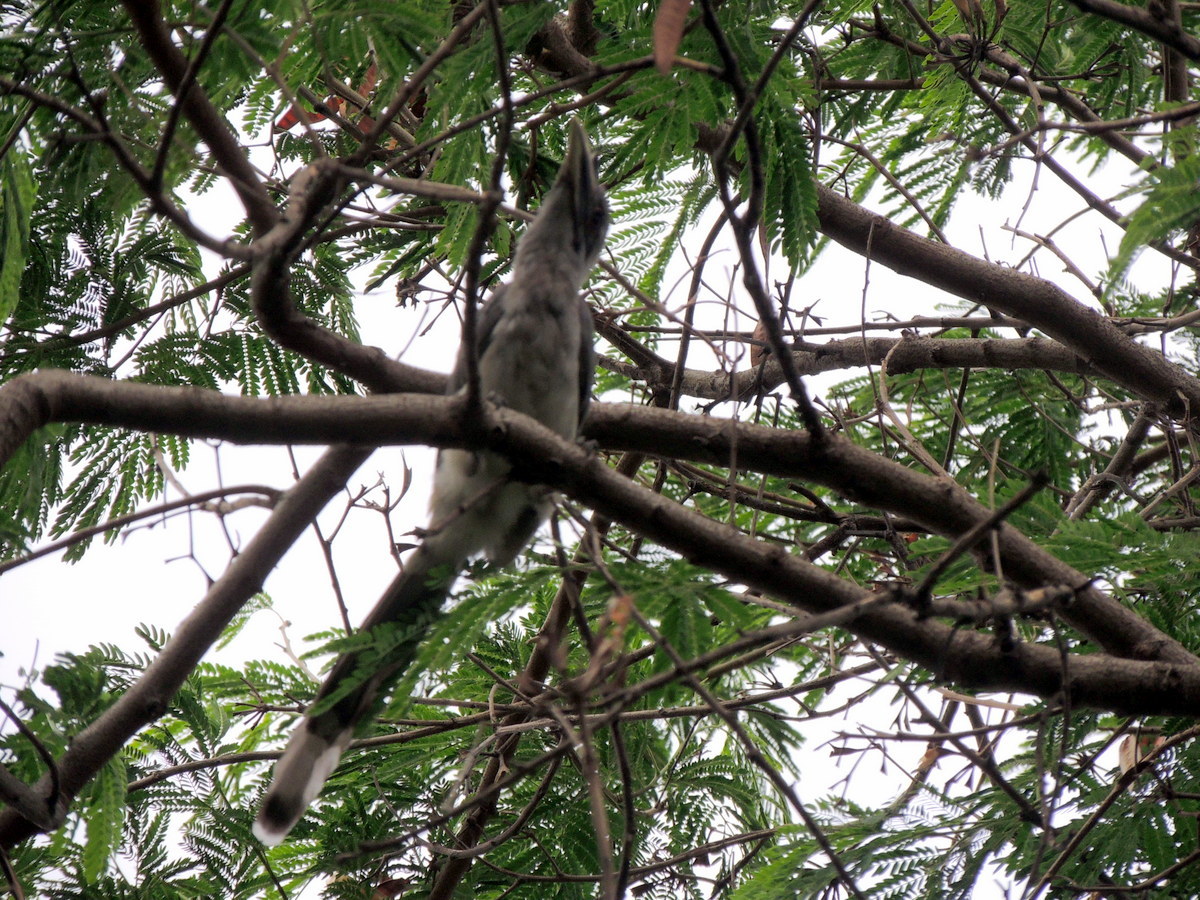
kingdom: Animalia
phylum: Chordata
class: Aves
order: Bucerotiformes
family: Bucerotidae
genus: Ocyceros
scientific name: Ocyceros birostris
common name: Indian grey hornbill
